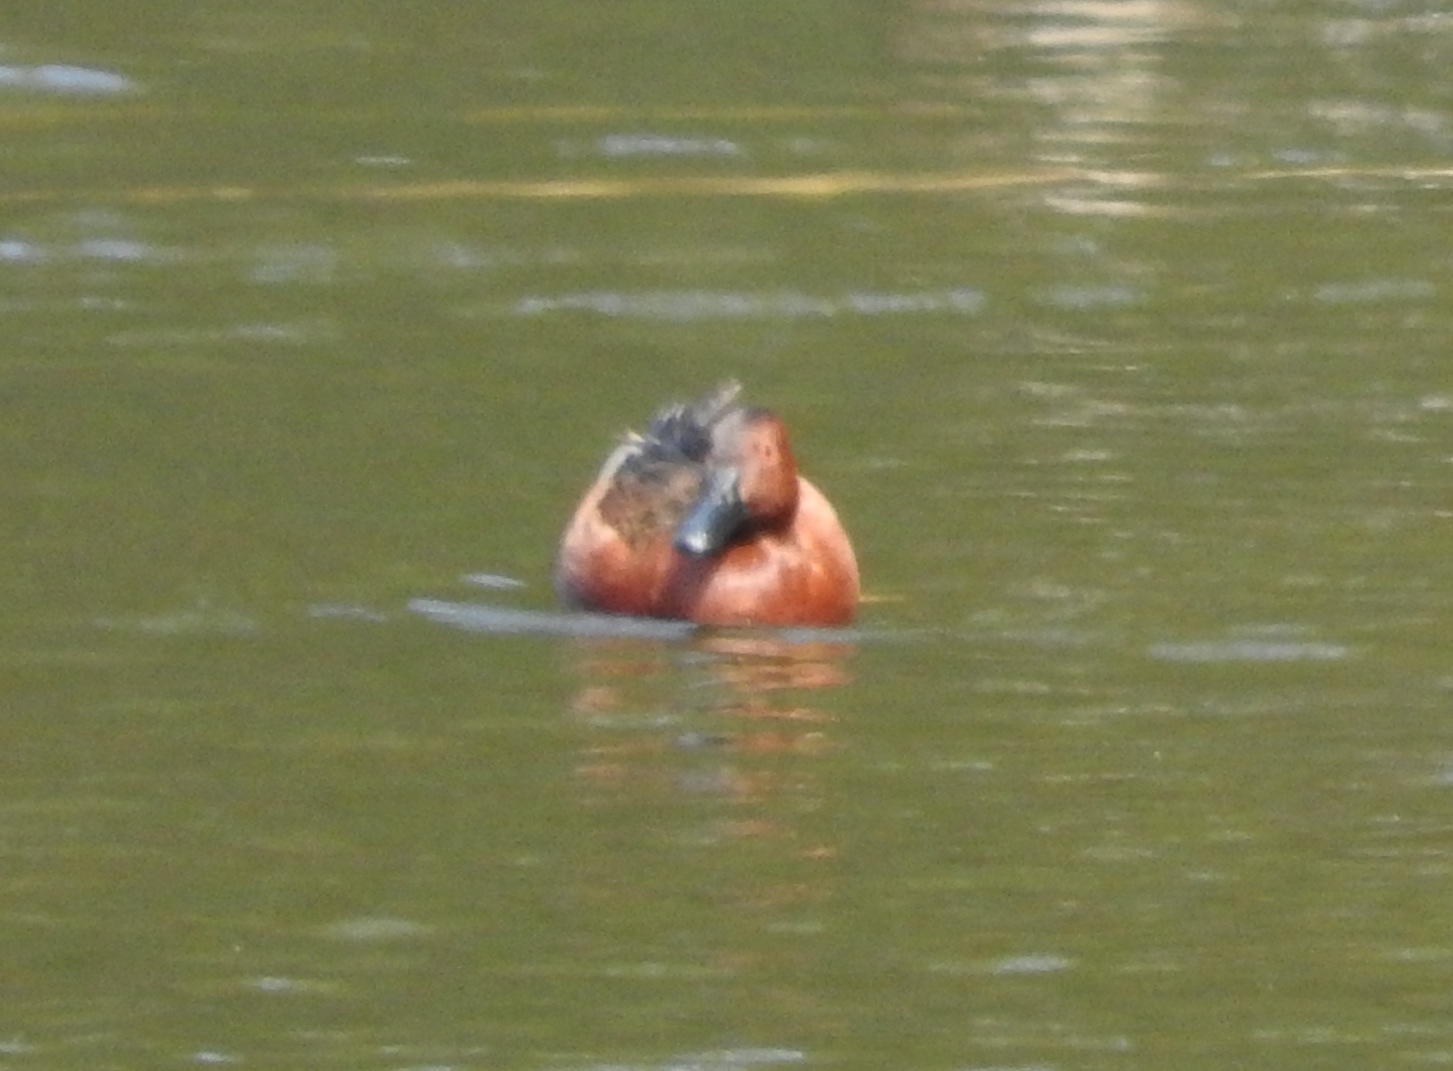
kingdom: Animalia
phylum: Chordata
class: Aves
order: Anseriformes
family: Anatidae
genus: Spatula
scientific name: Spatula cyanoptera
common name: Cinnamon teal
